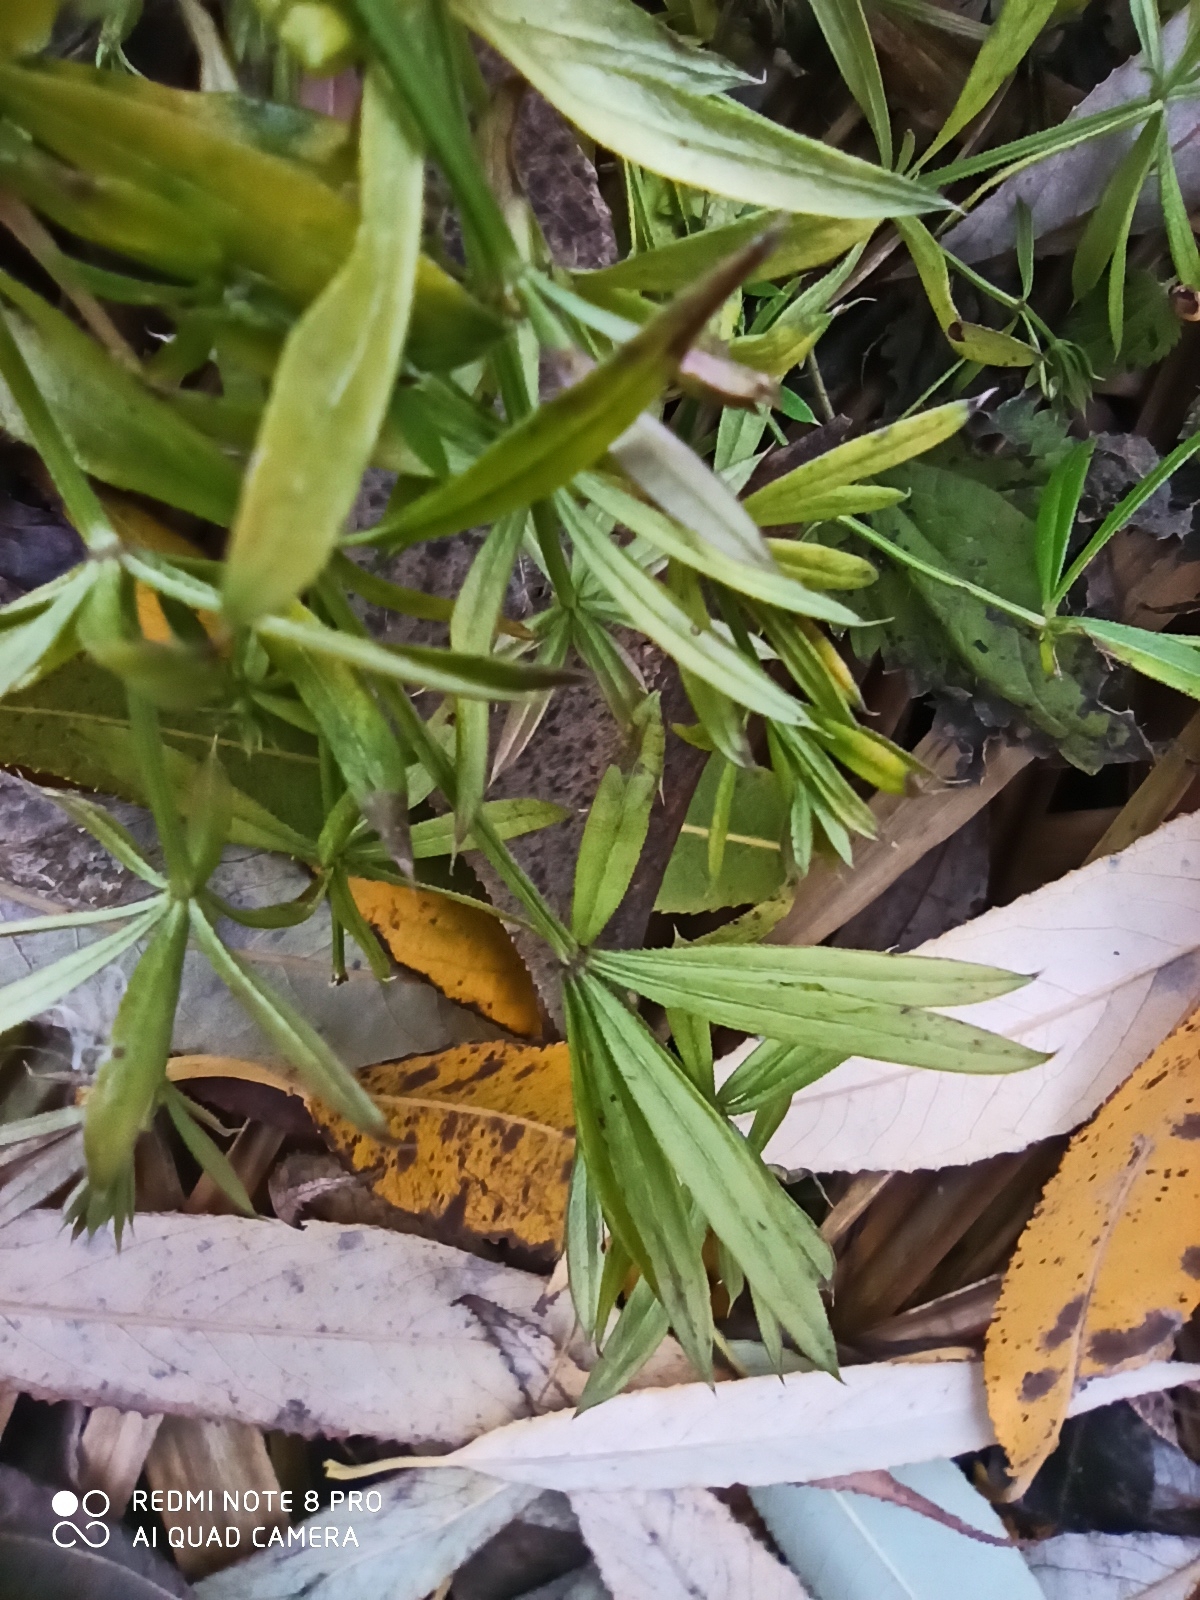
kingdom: Plantae
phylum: Tracheophyta
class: Magnoliopsida
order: Gentianales
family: Rubiaceae
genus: Galium
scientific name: Galium aparine
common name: Cleavers
